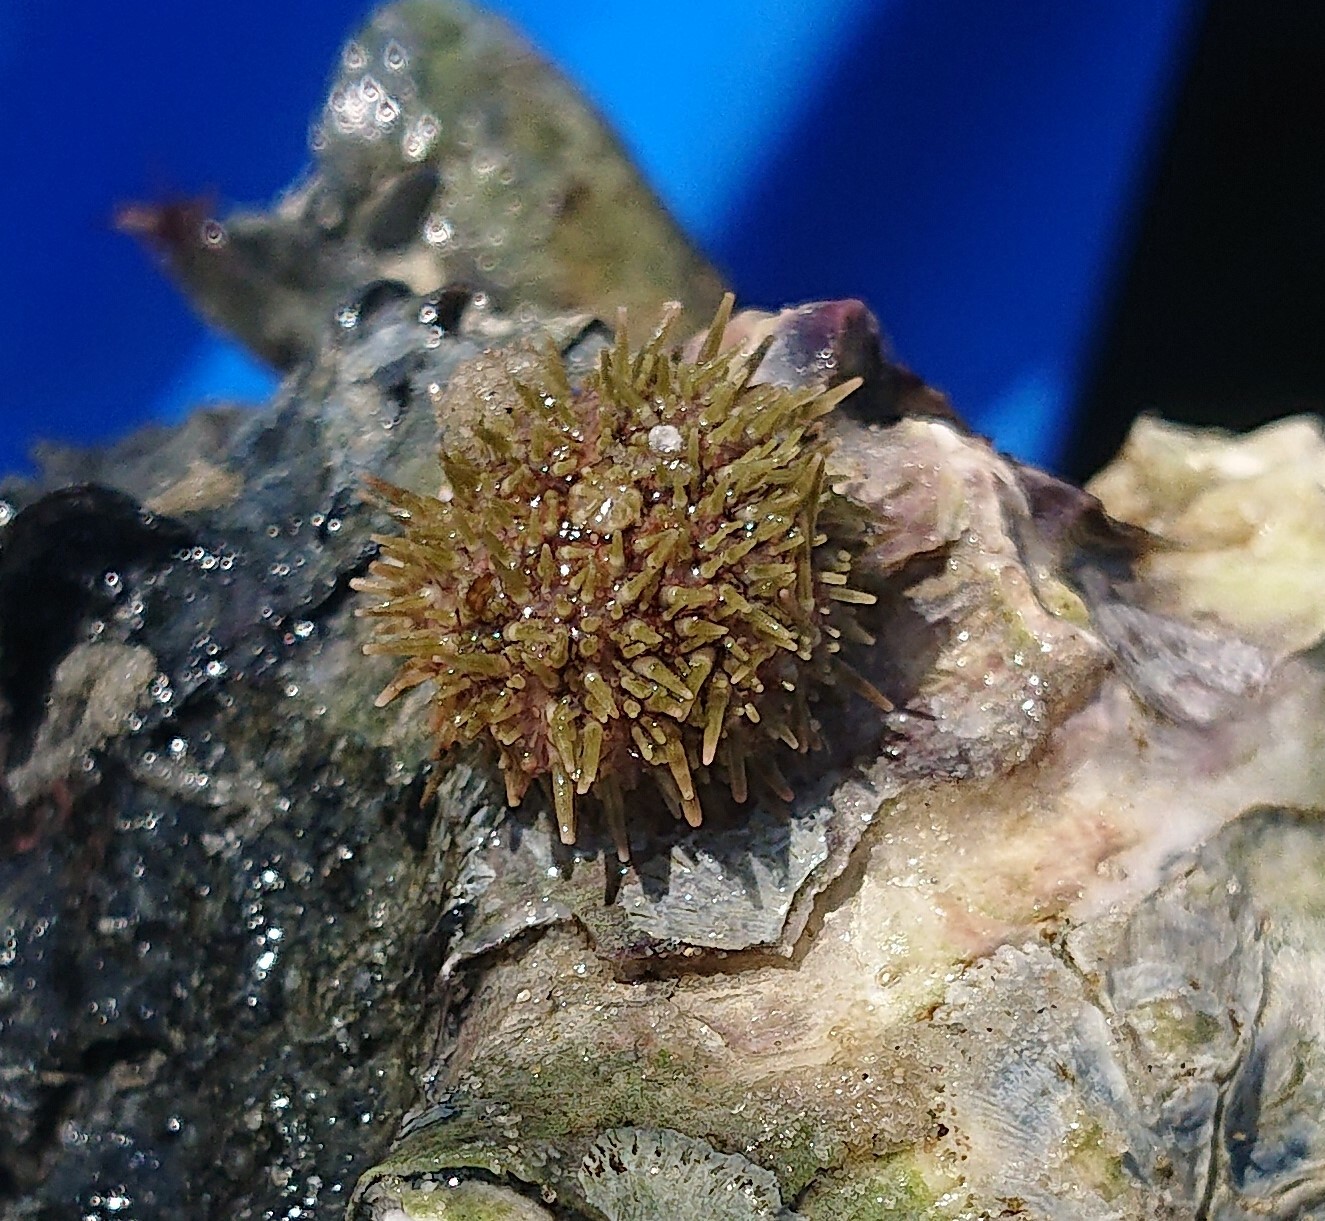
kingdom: Animalia
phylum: Echinodermata
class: Echinoidea
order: Camarodonta
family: Parechinidae
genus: Psammechinus
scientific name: Psammechinus miliaris
